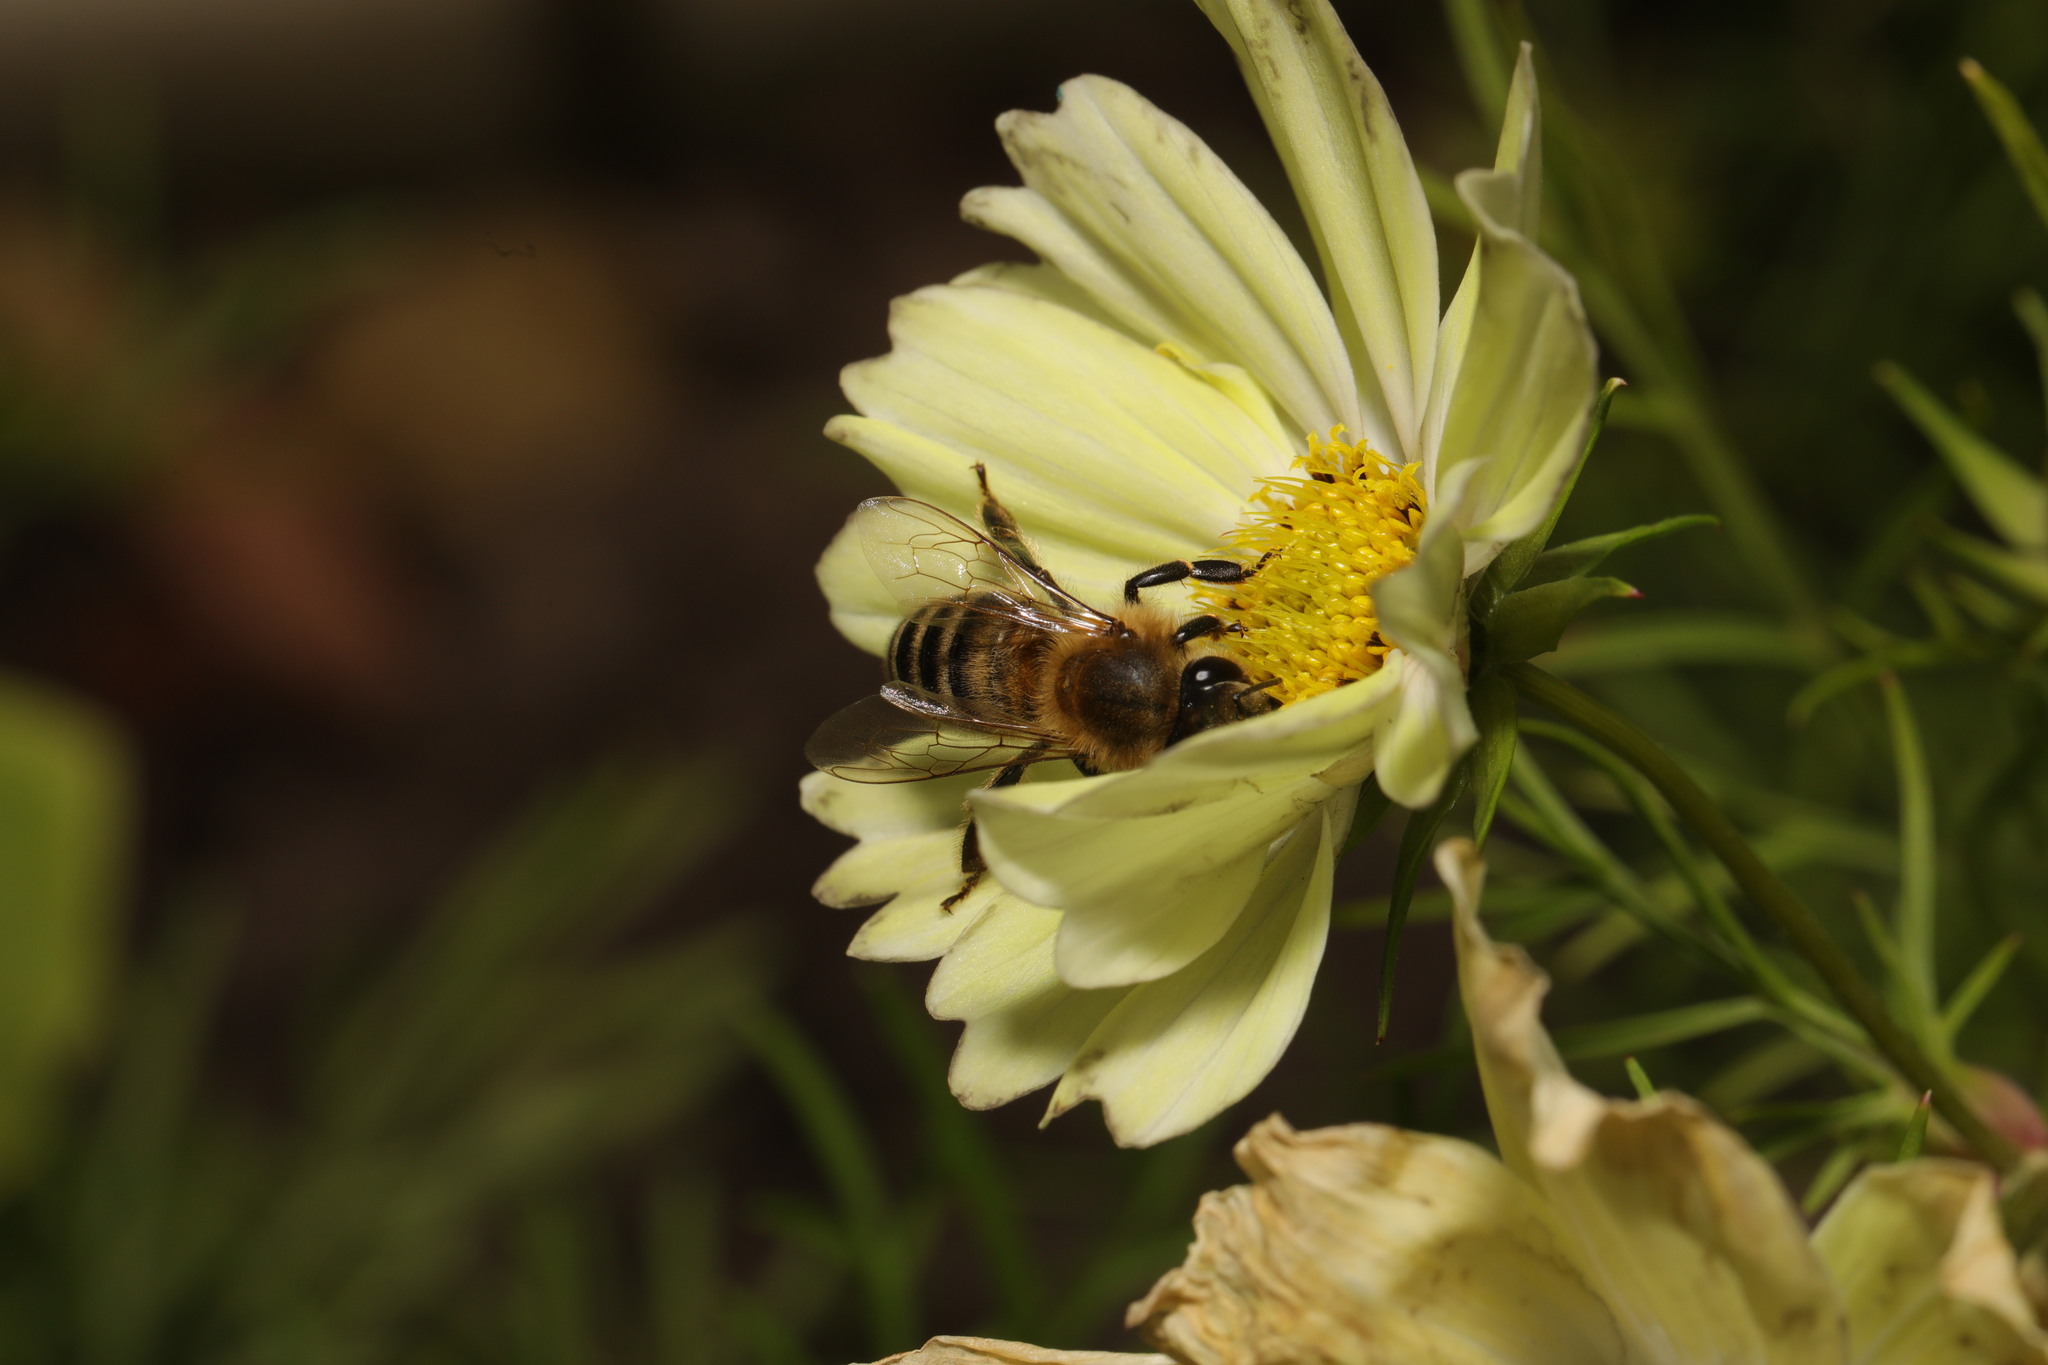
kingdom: Animalia
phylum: Arthropoda
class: Insecta
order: Hymenoptera
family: Apidae
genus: Apis
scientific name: Apis mellifera
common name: Honey bee
